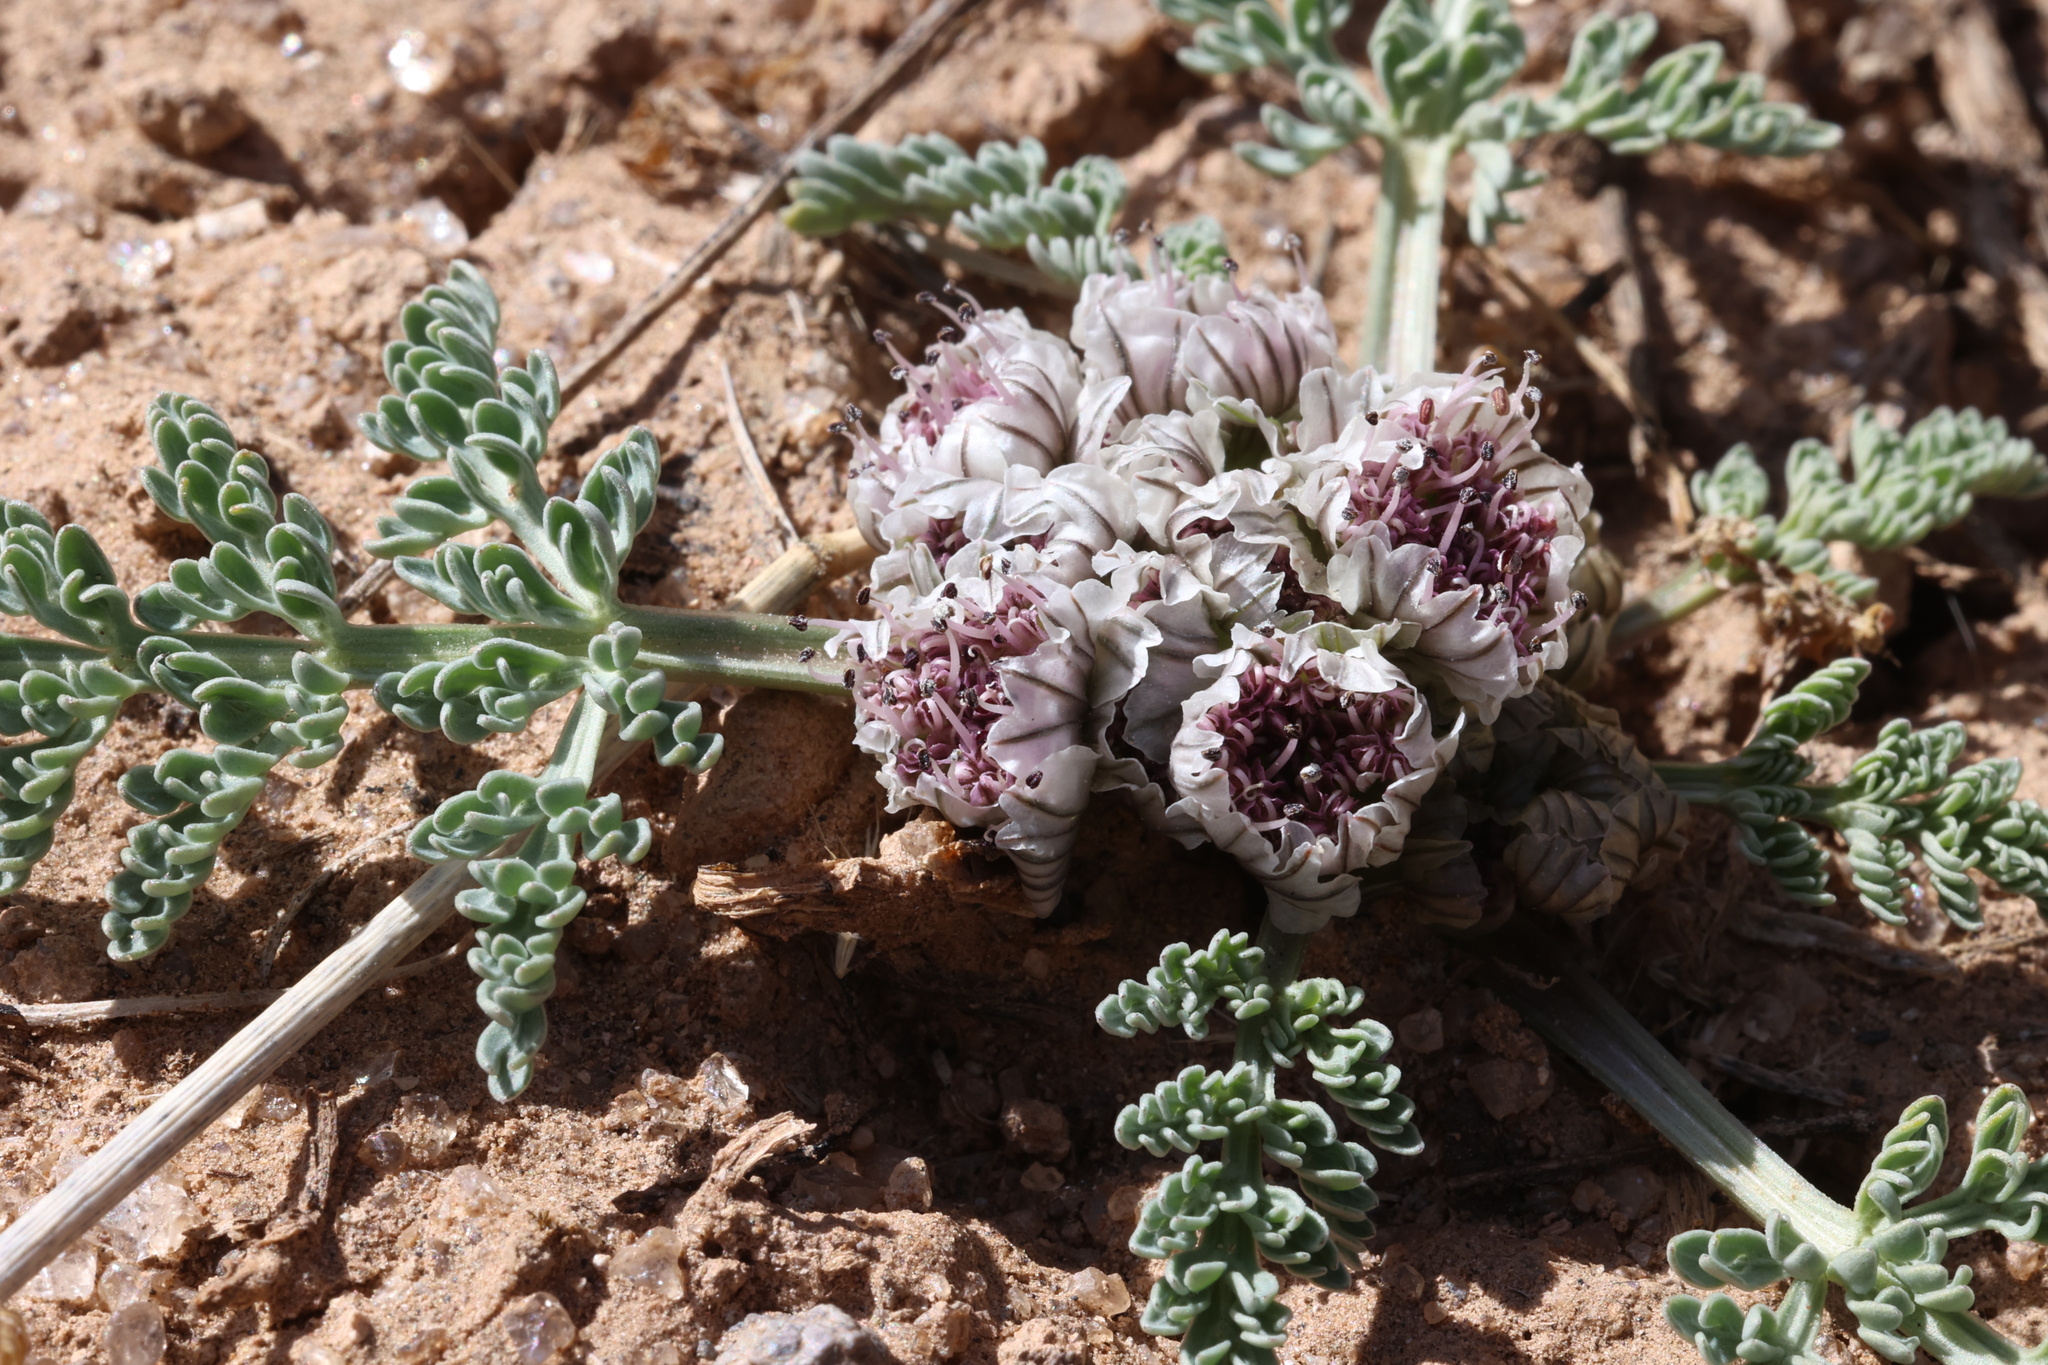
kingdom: Plantae
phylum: Tracheophyta
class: Magnoliopsida
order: Apiales
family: Apiaceae
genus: Vesper
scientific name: Vesper constancei
